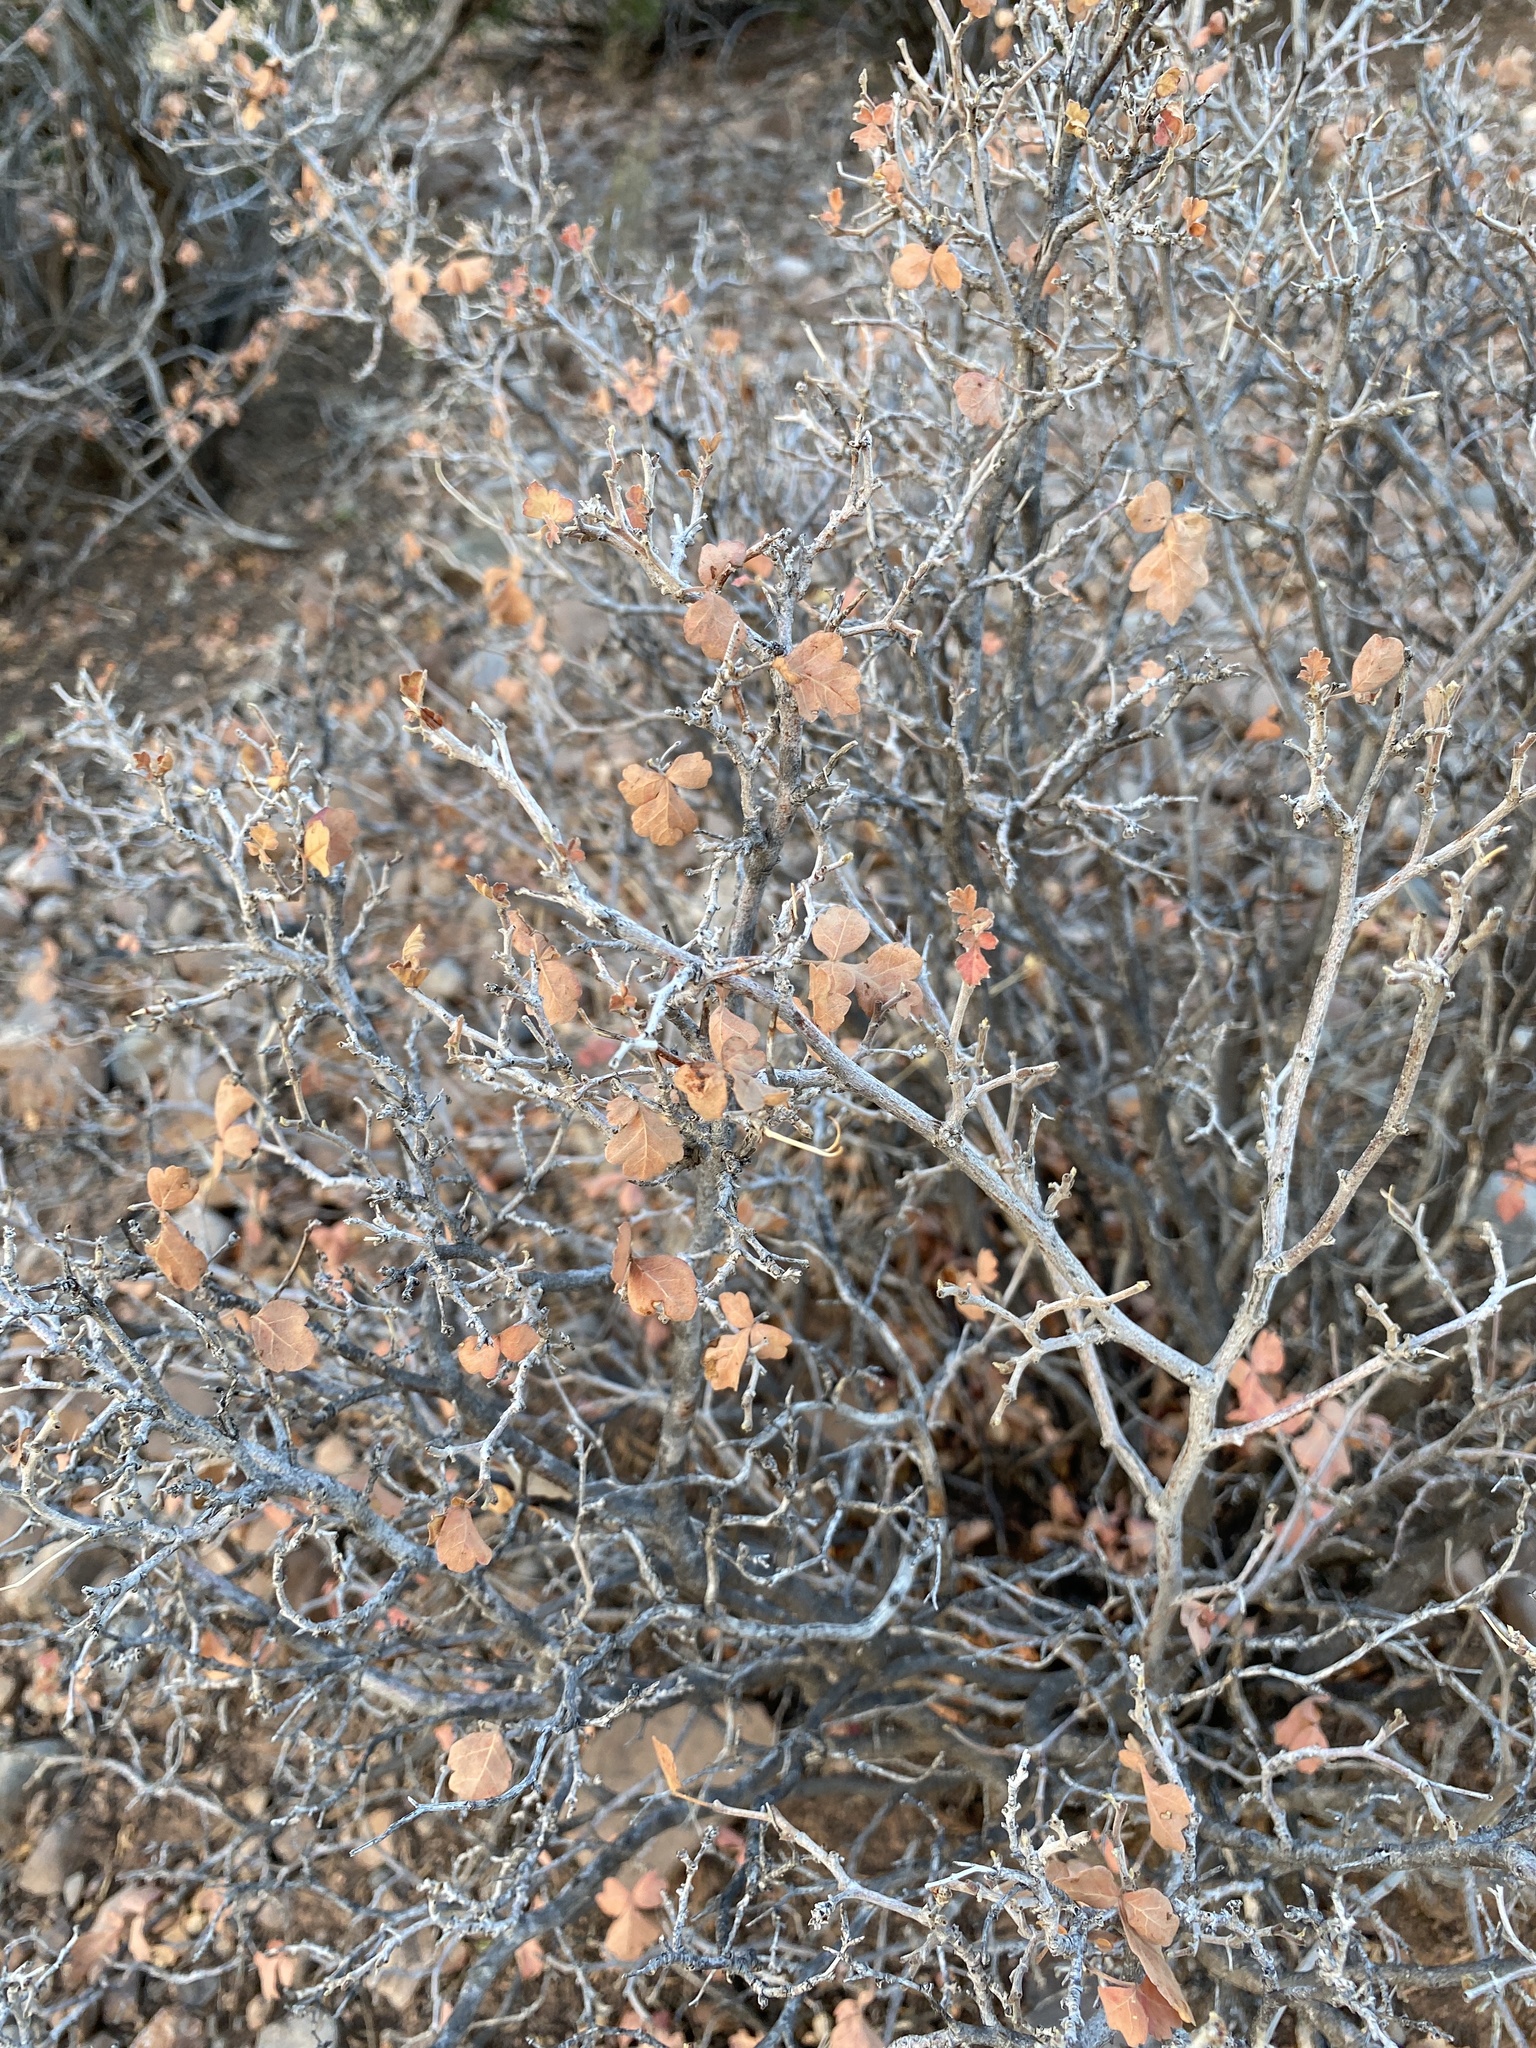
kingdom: Plantae
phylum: Tracheophyta
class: Magnoliopsida
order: Sapindales
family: Anacardiaceae
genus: Rhus
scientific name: Rhus aromatica
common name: Aromatic sumac
